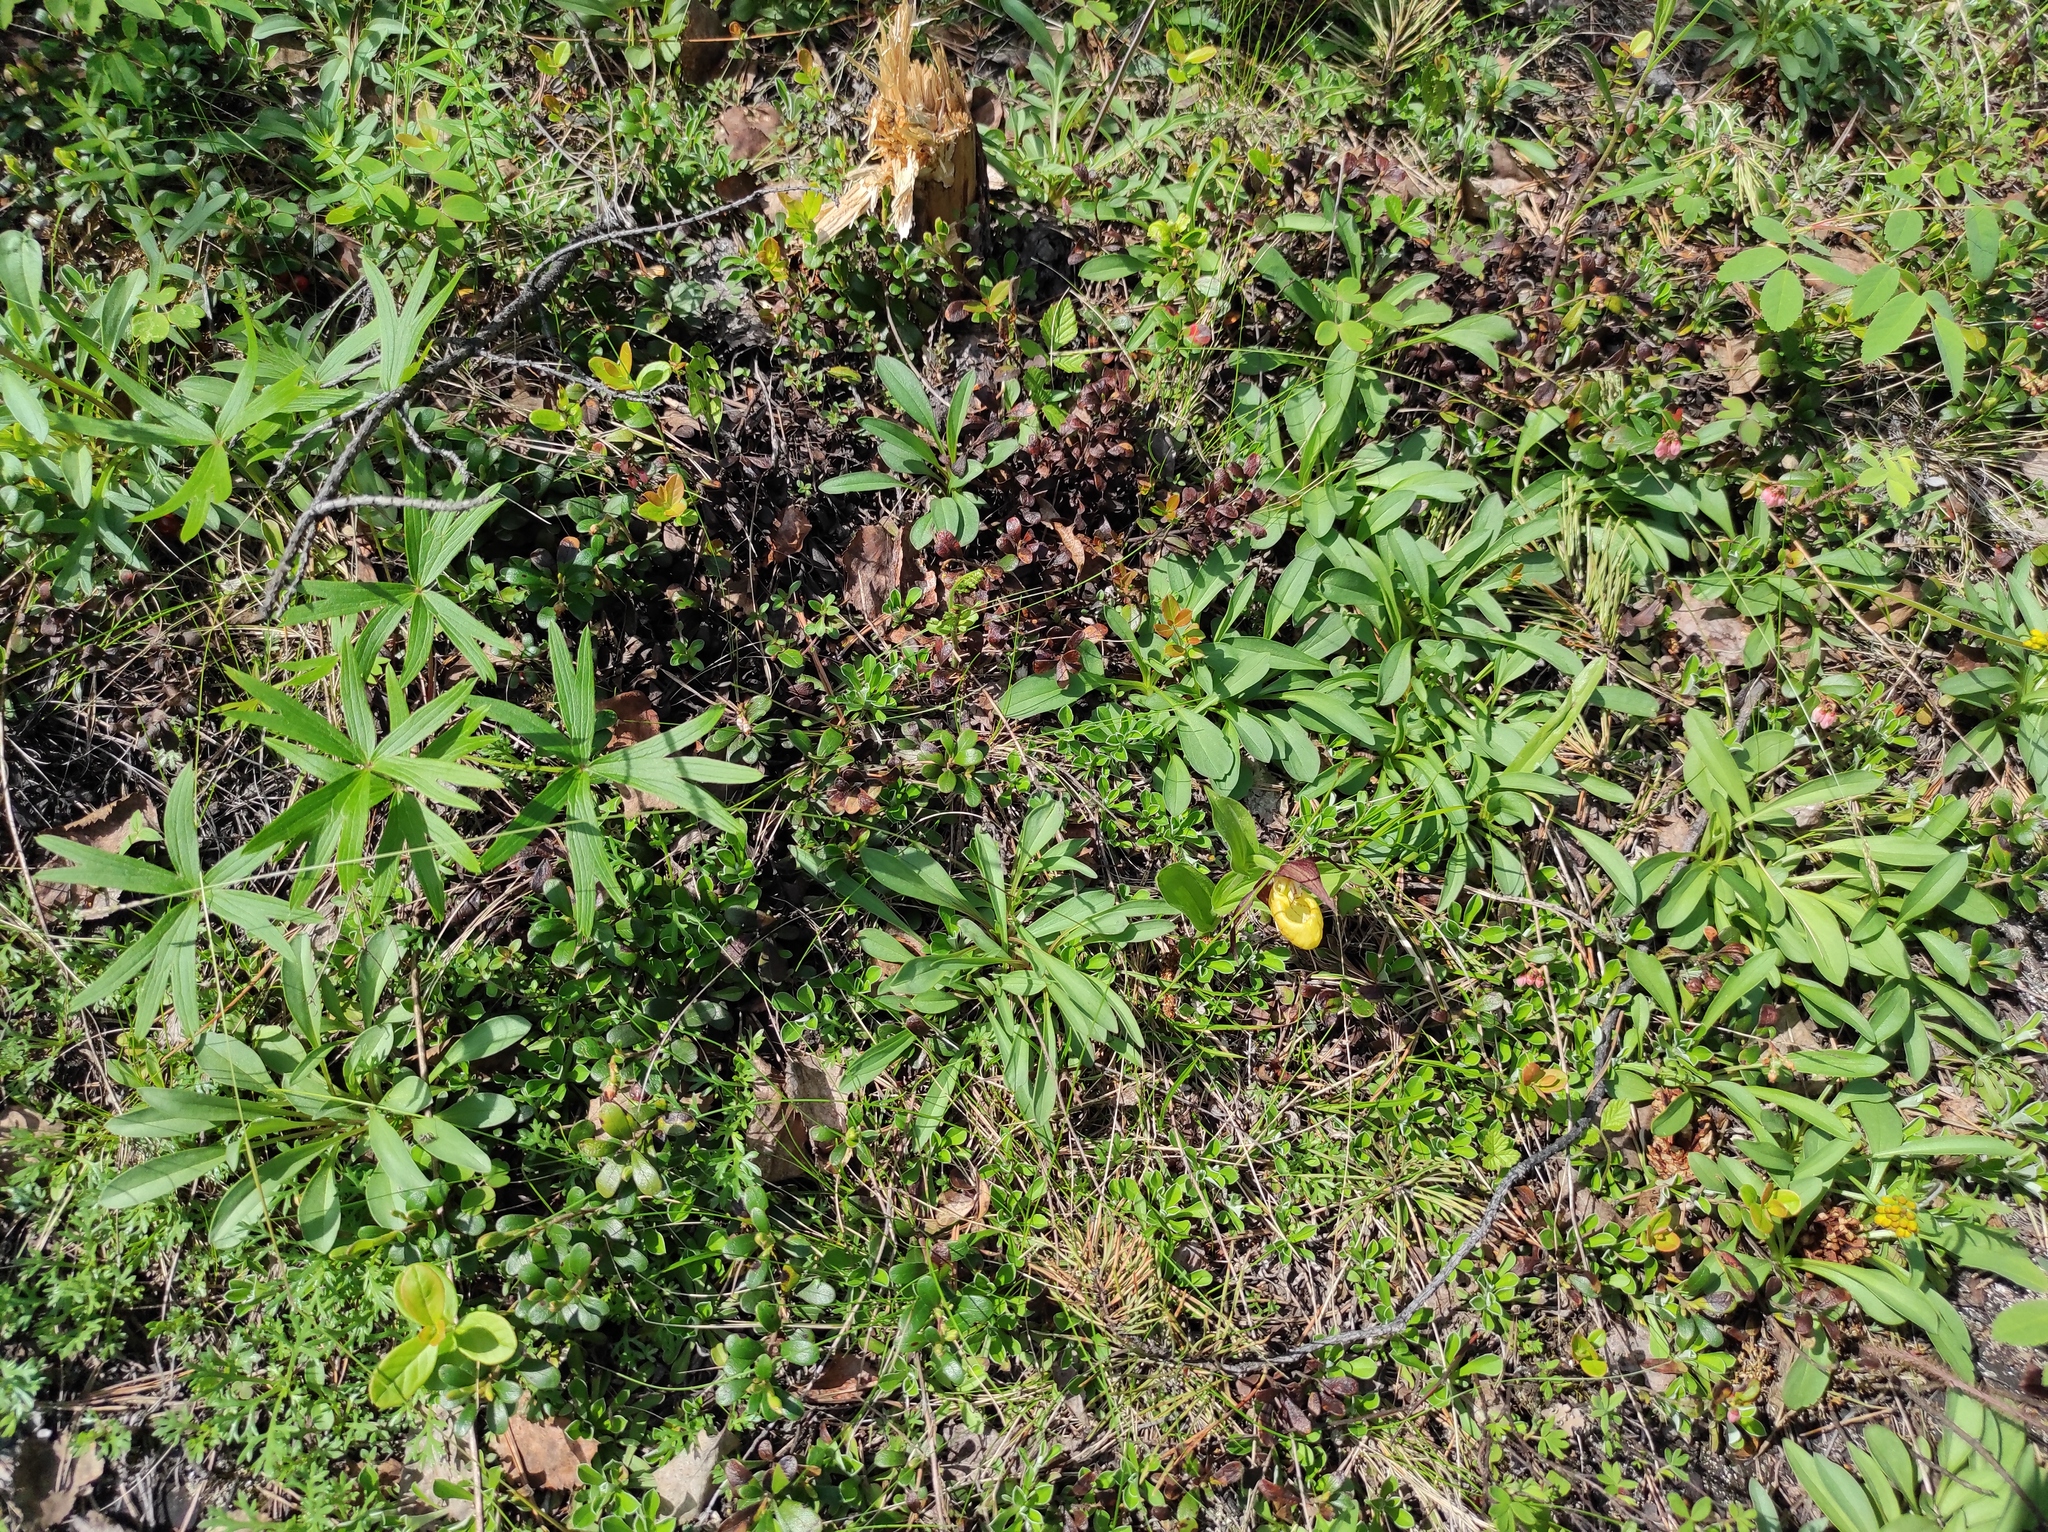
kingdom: Plantae
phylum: Tracheophyta
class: Magnoliopsida
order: Ranunculales
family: Ranunculaceae
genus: Pulsatilla
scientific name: Pulsatilla patens
